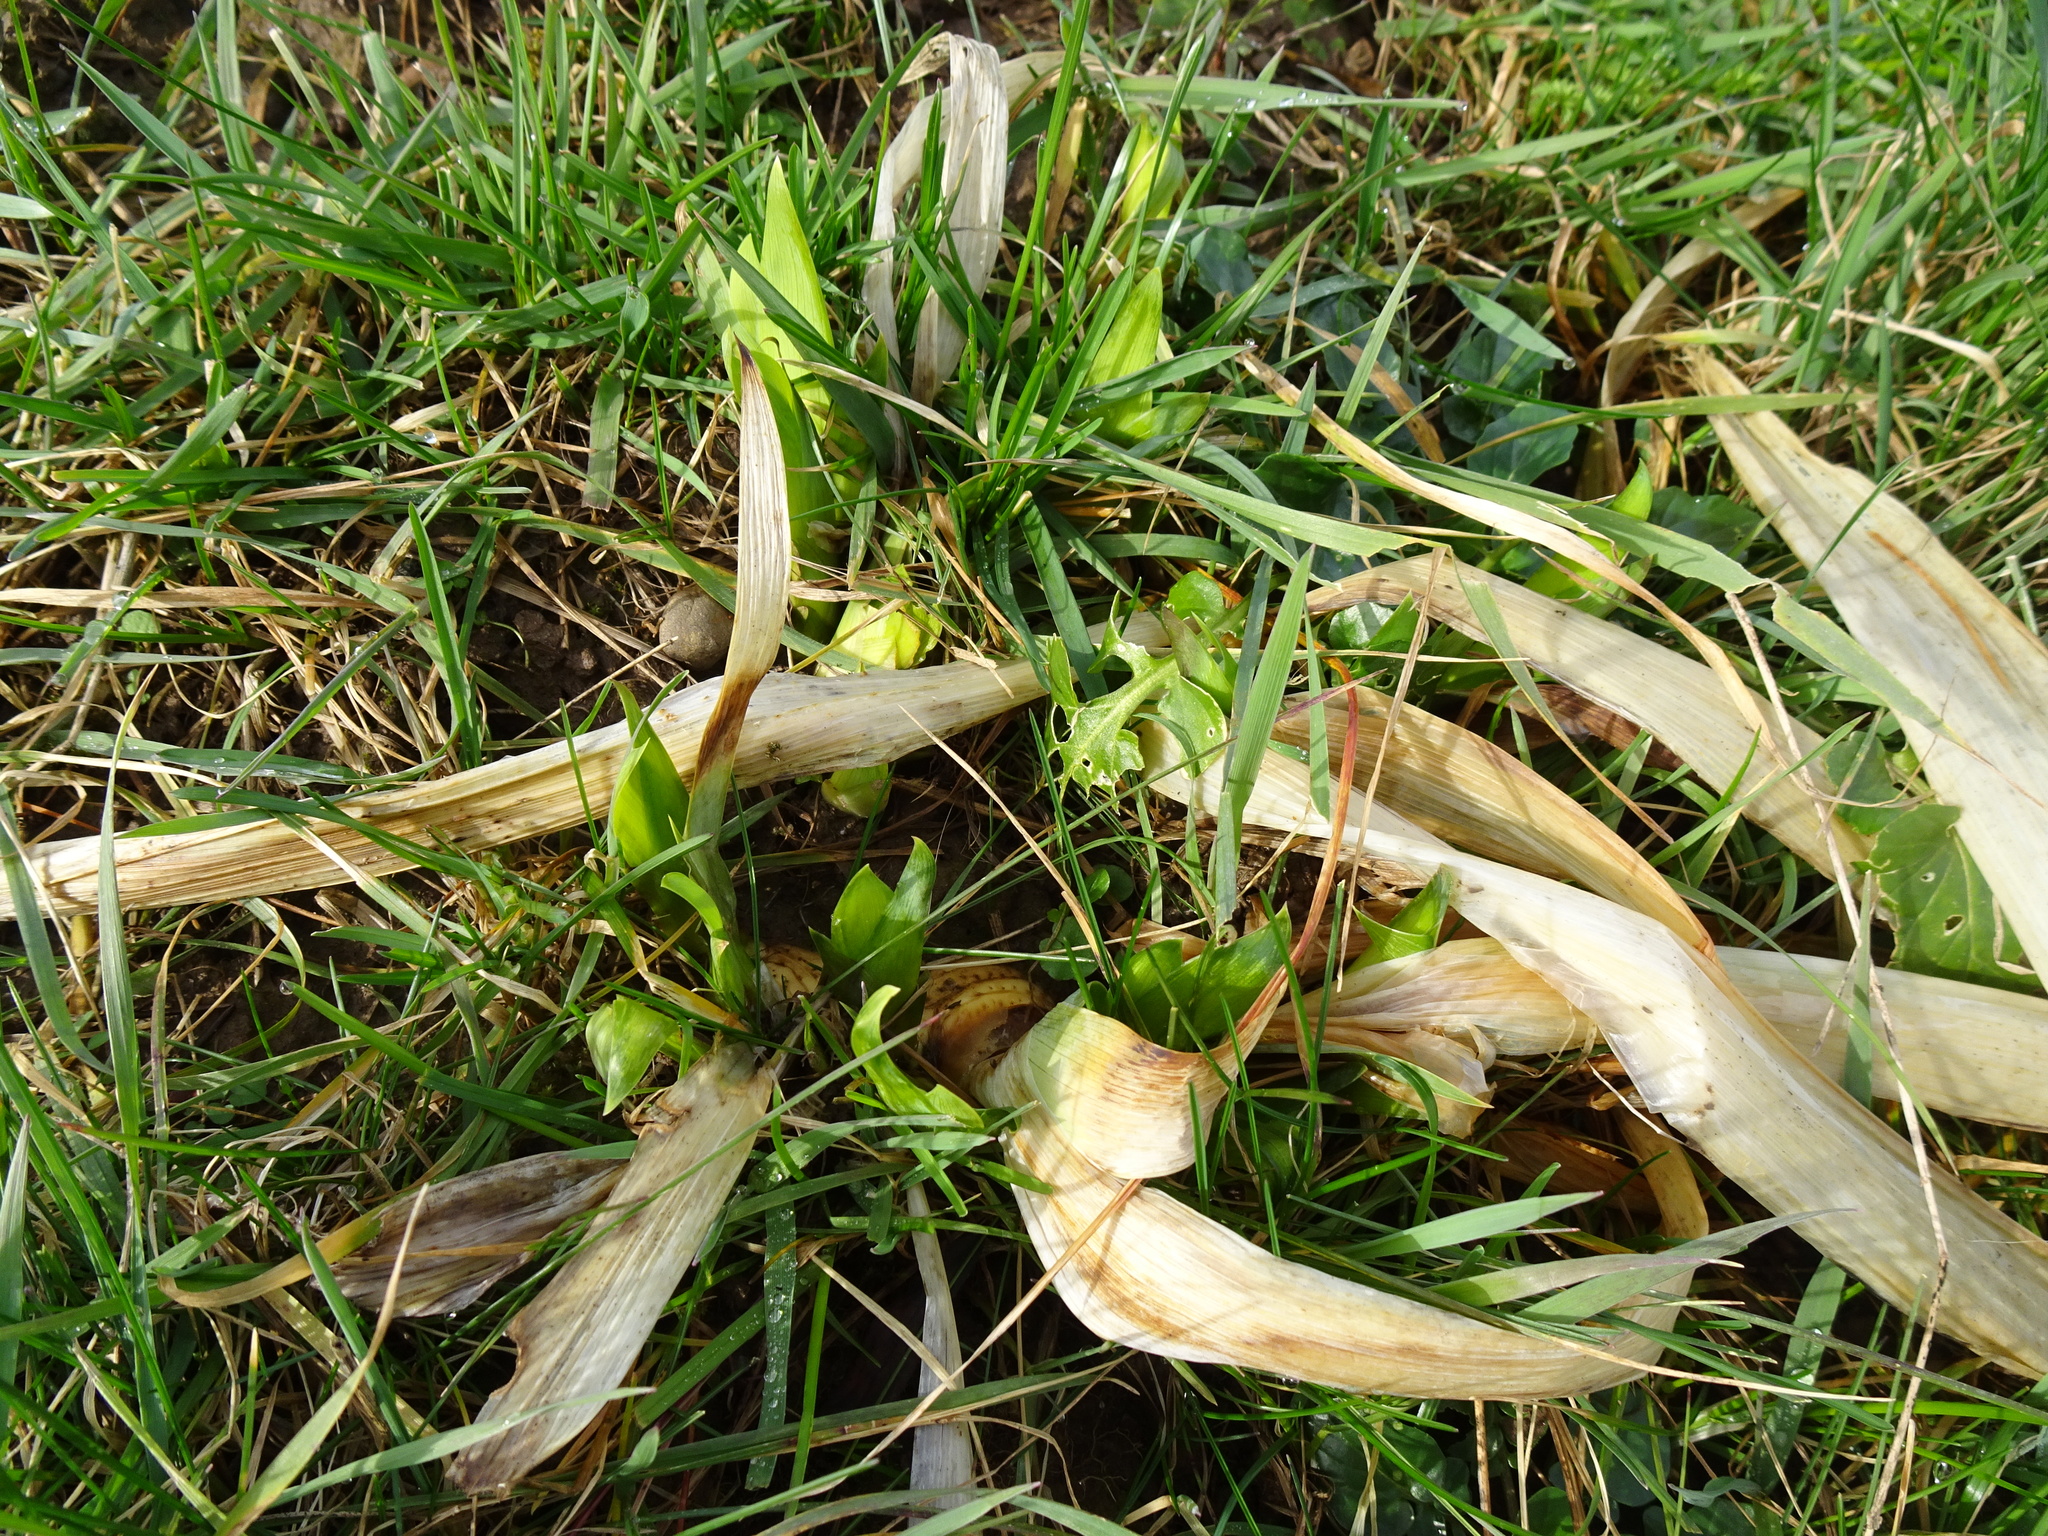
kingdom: Plantae
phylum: Tracheophyta
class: Liliopsida
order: Asparagales
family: Iridaceae
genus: Iris
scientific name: Iris pseudacorus
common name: Yellow flag
